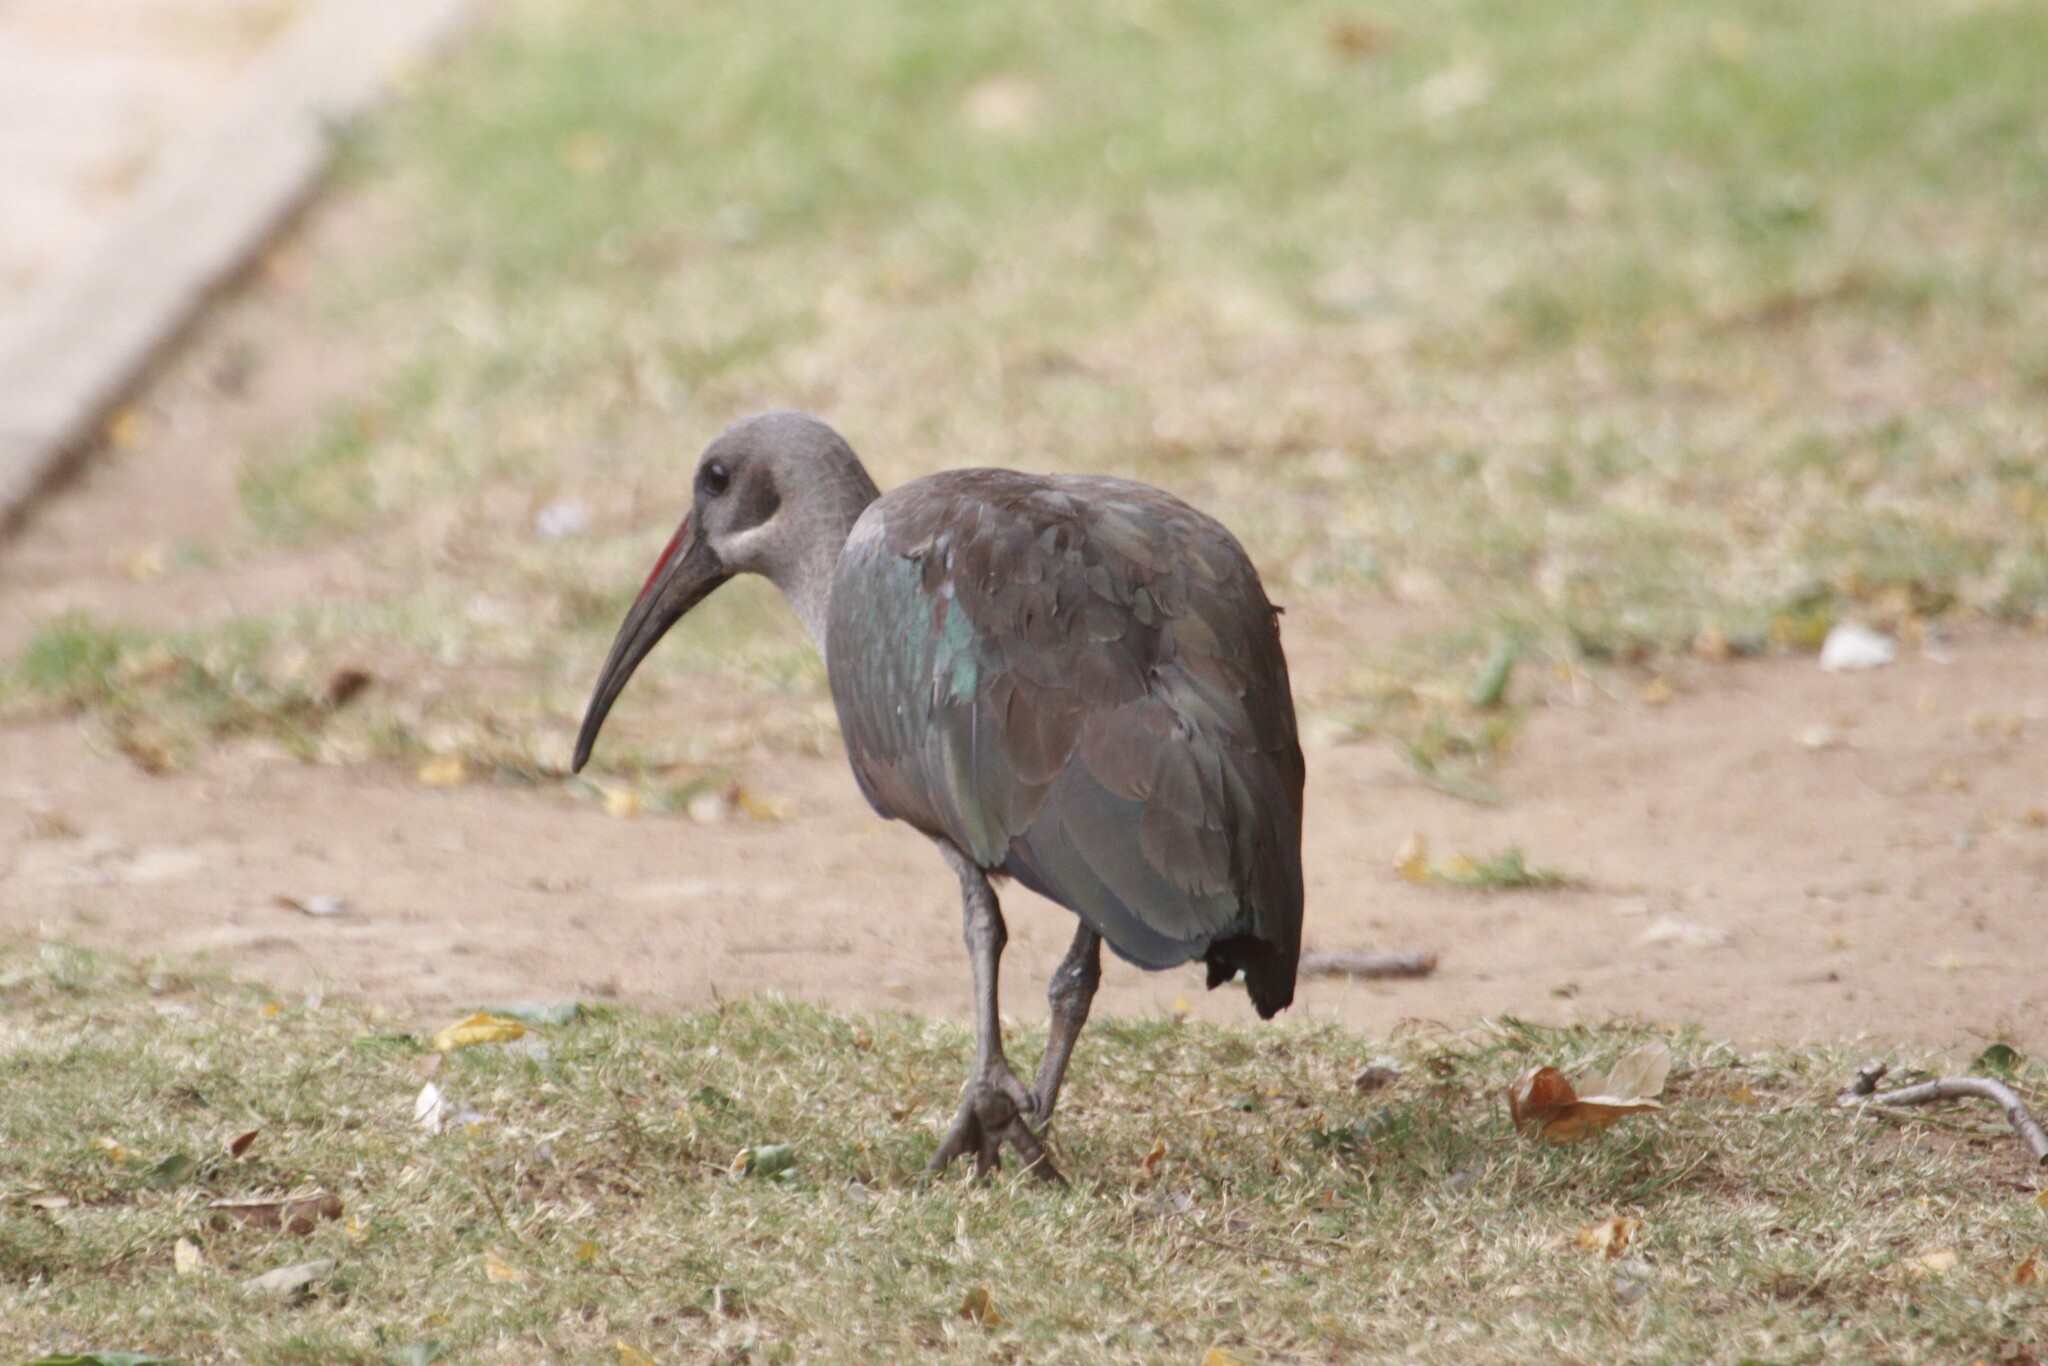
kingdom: Animalia
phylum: Chordata
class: Aves
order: Pelecaniformes
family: Threskiornithidae
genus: Bostrychia
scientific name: Bostrychia hagedash
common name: Hadada ibis
